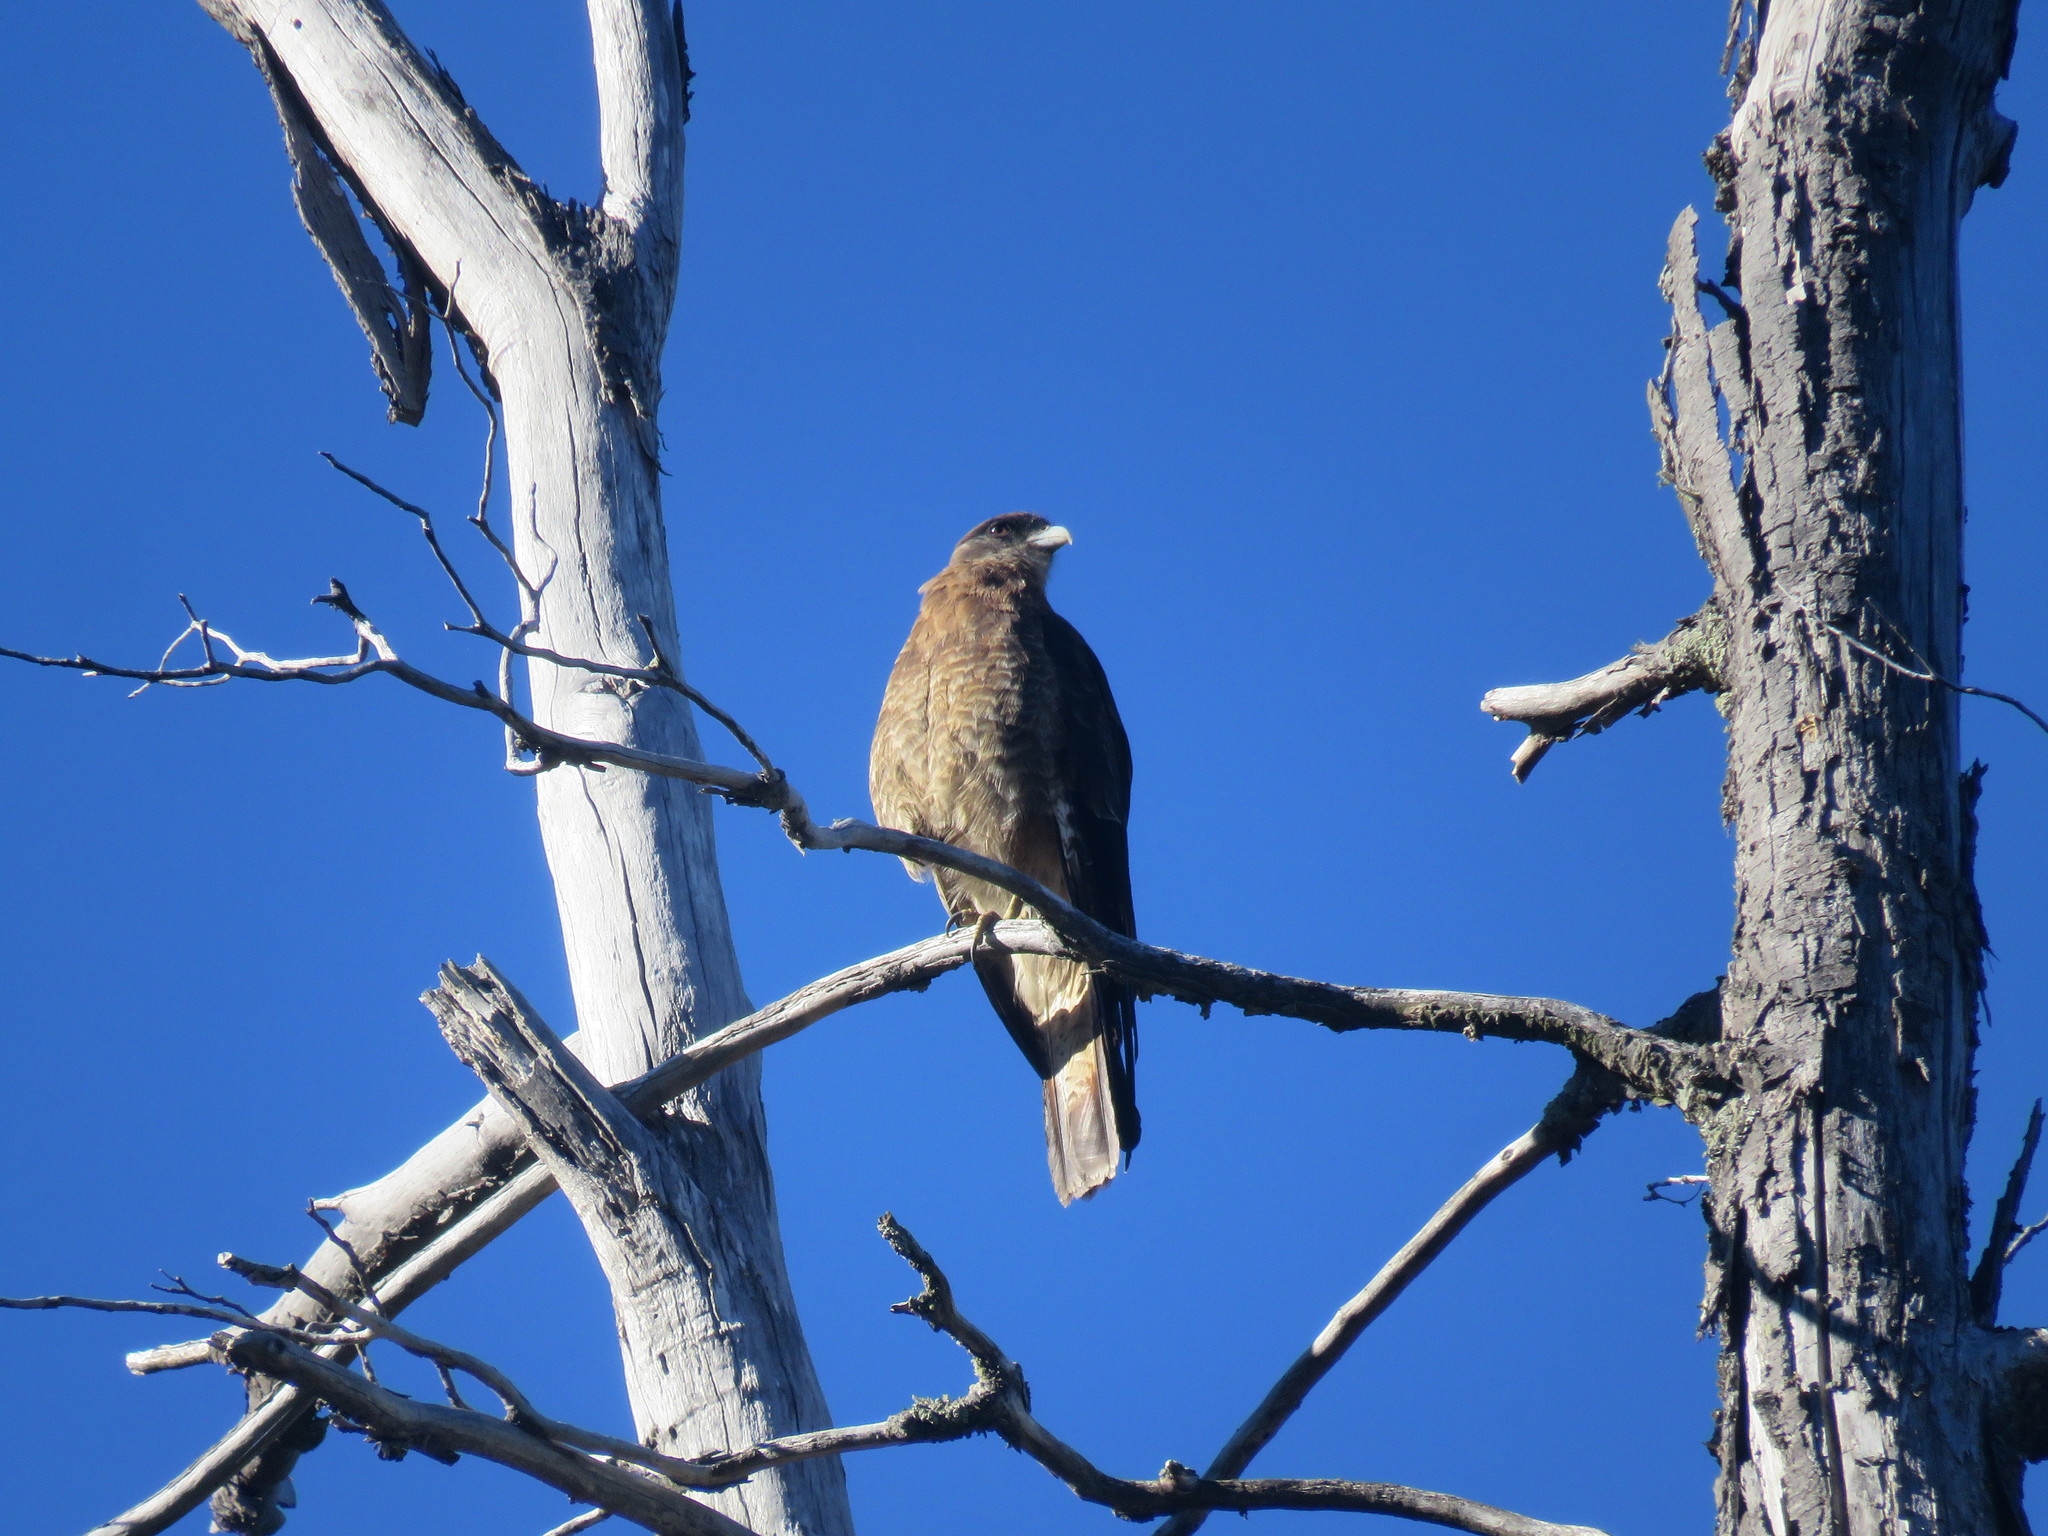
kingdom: Animalia
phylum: Chordata
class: Aves
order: Falconiformes
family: Falconidae
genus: Daptrius
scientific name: Daptrius
